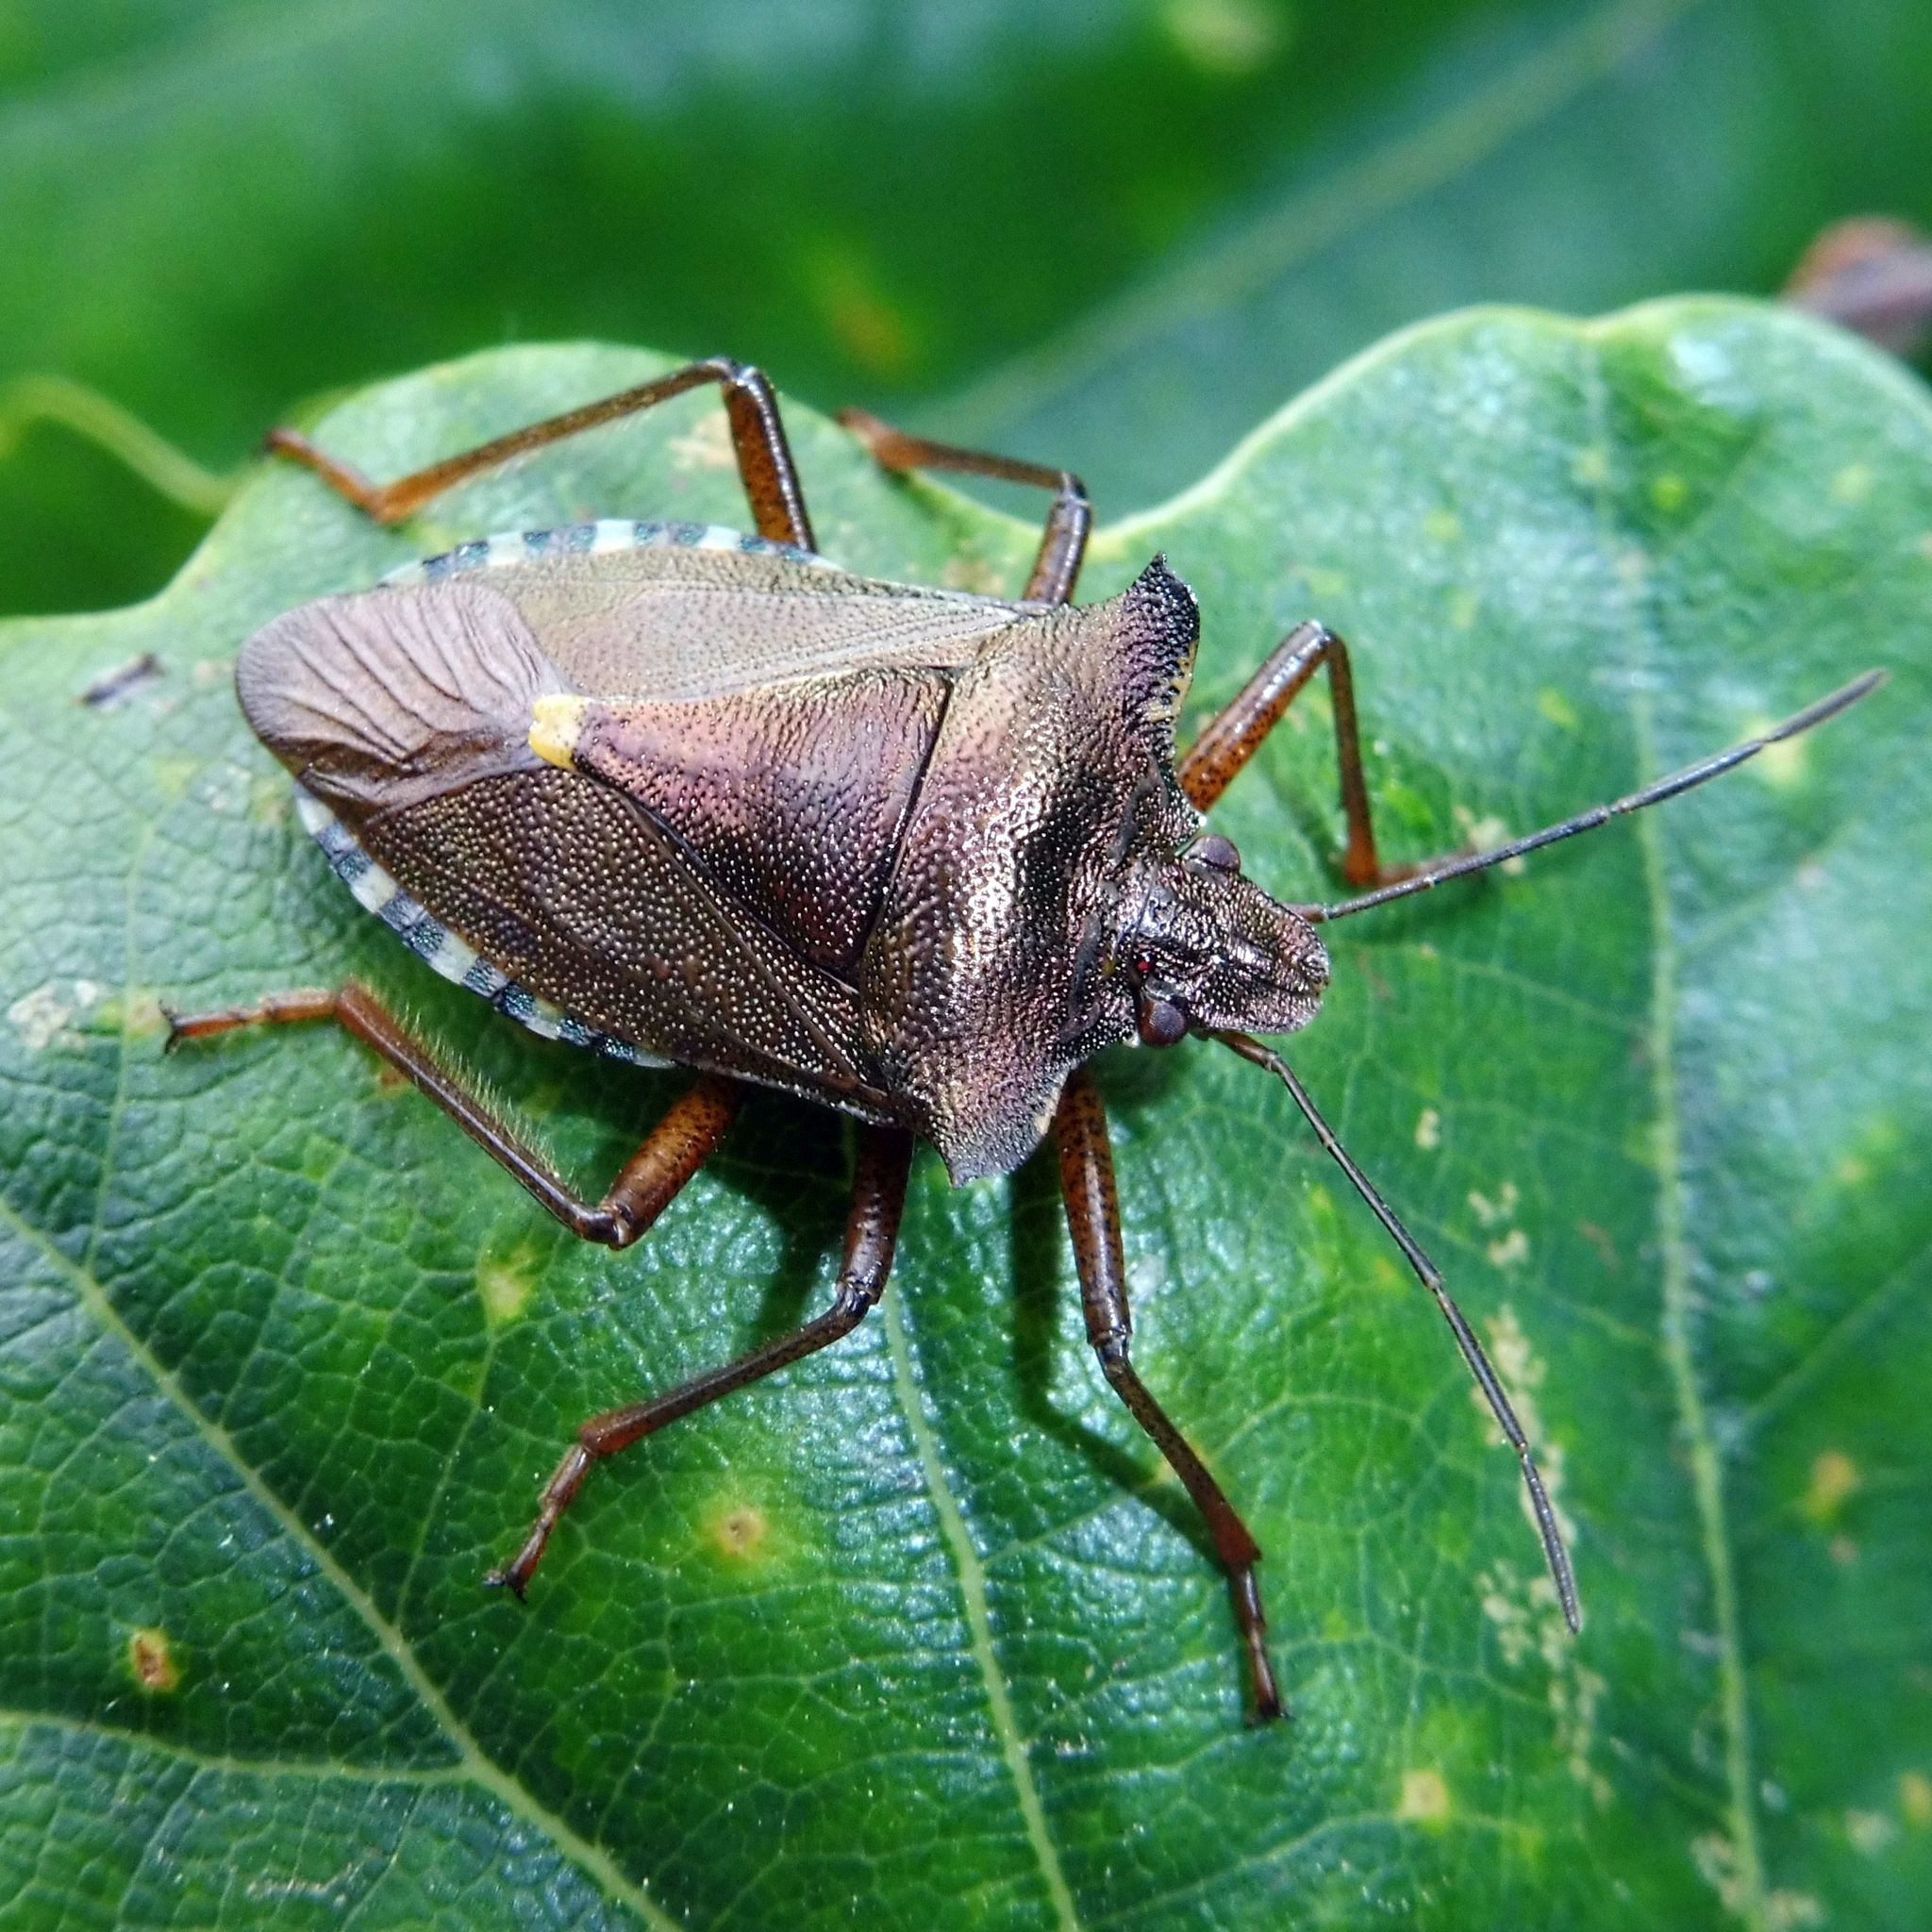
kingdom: Animalia
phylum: Arthropoda
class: Insecta
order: Hemiptera
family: Pentatomidae
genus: Pentatoma
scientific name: Pentatoma rufipes
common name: Forest bug
